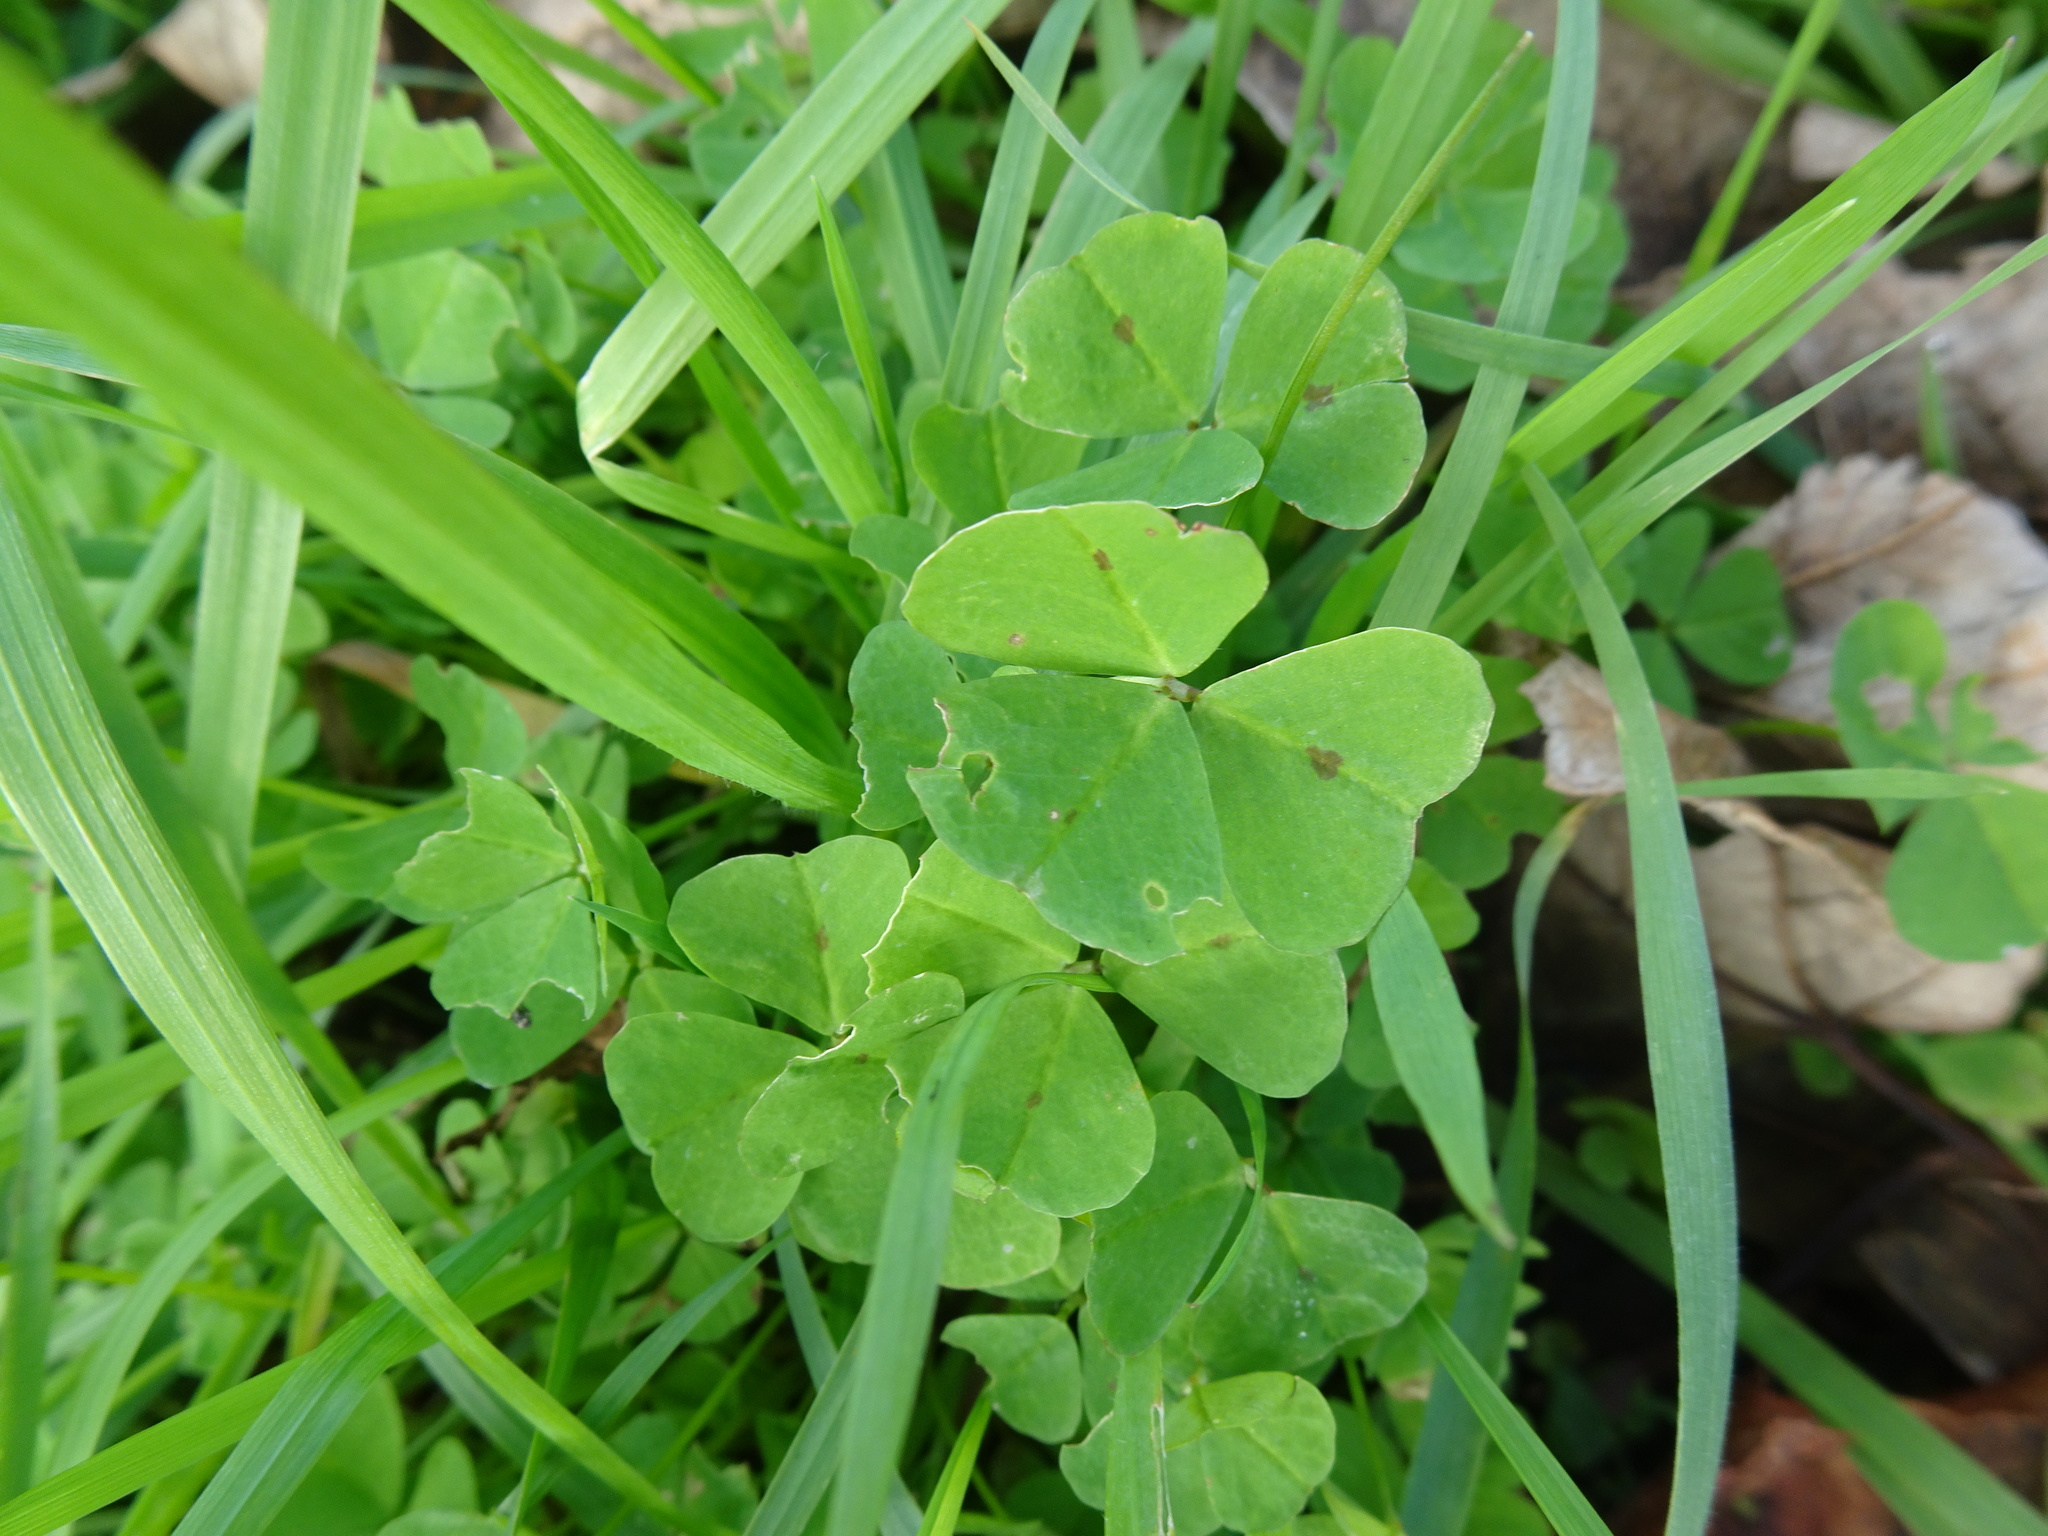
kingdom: Plantae
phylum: Tracheophyta
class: Magnoliopsida
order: Fabales
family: Fabaceae
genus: Medicago
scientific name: Medicago arabica
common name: Spotted medick
